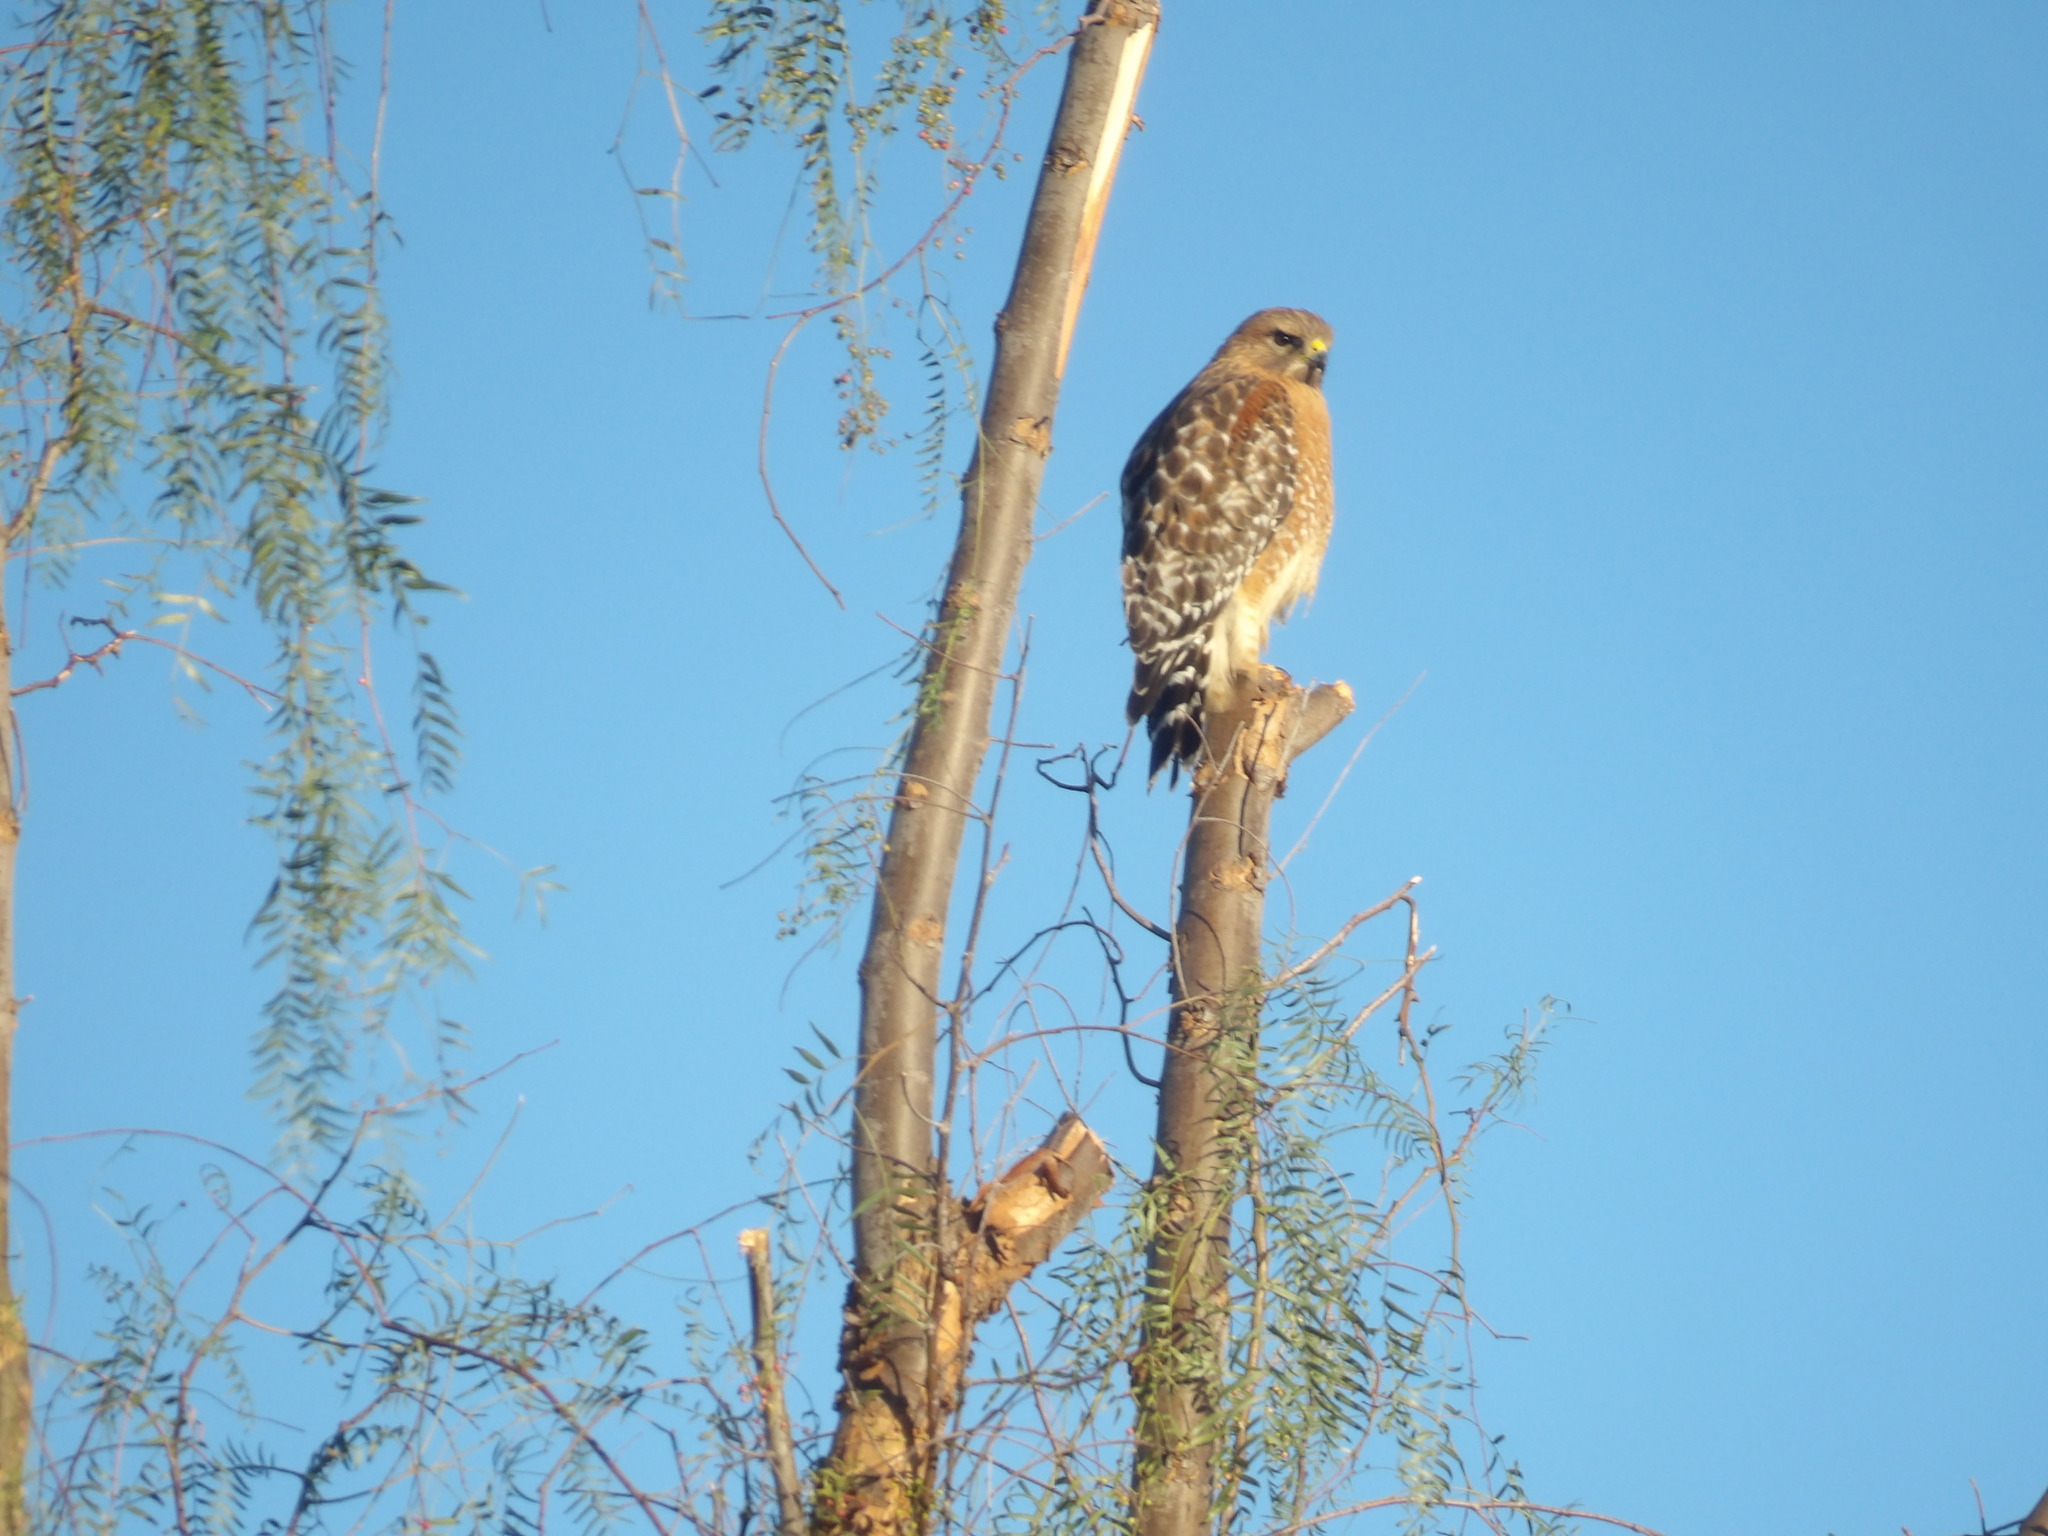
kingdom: Animalia
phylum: Chordata
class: Aves
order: Accipitriformes
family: Accipitridae
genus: Buteo
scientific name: Buteo lineatus
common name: Red-shouldered hawk
